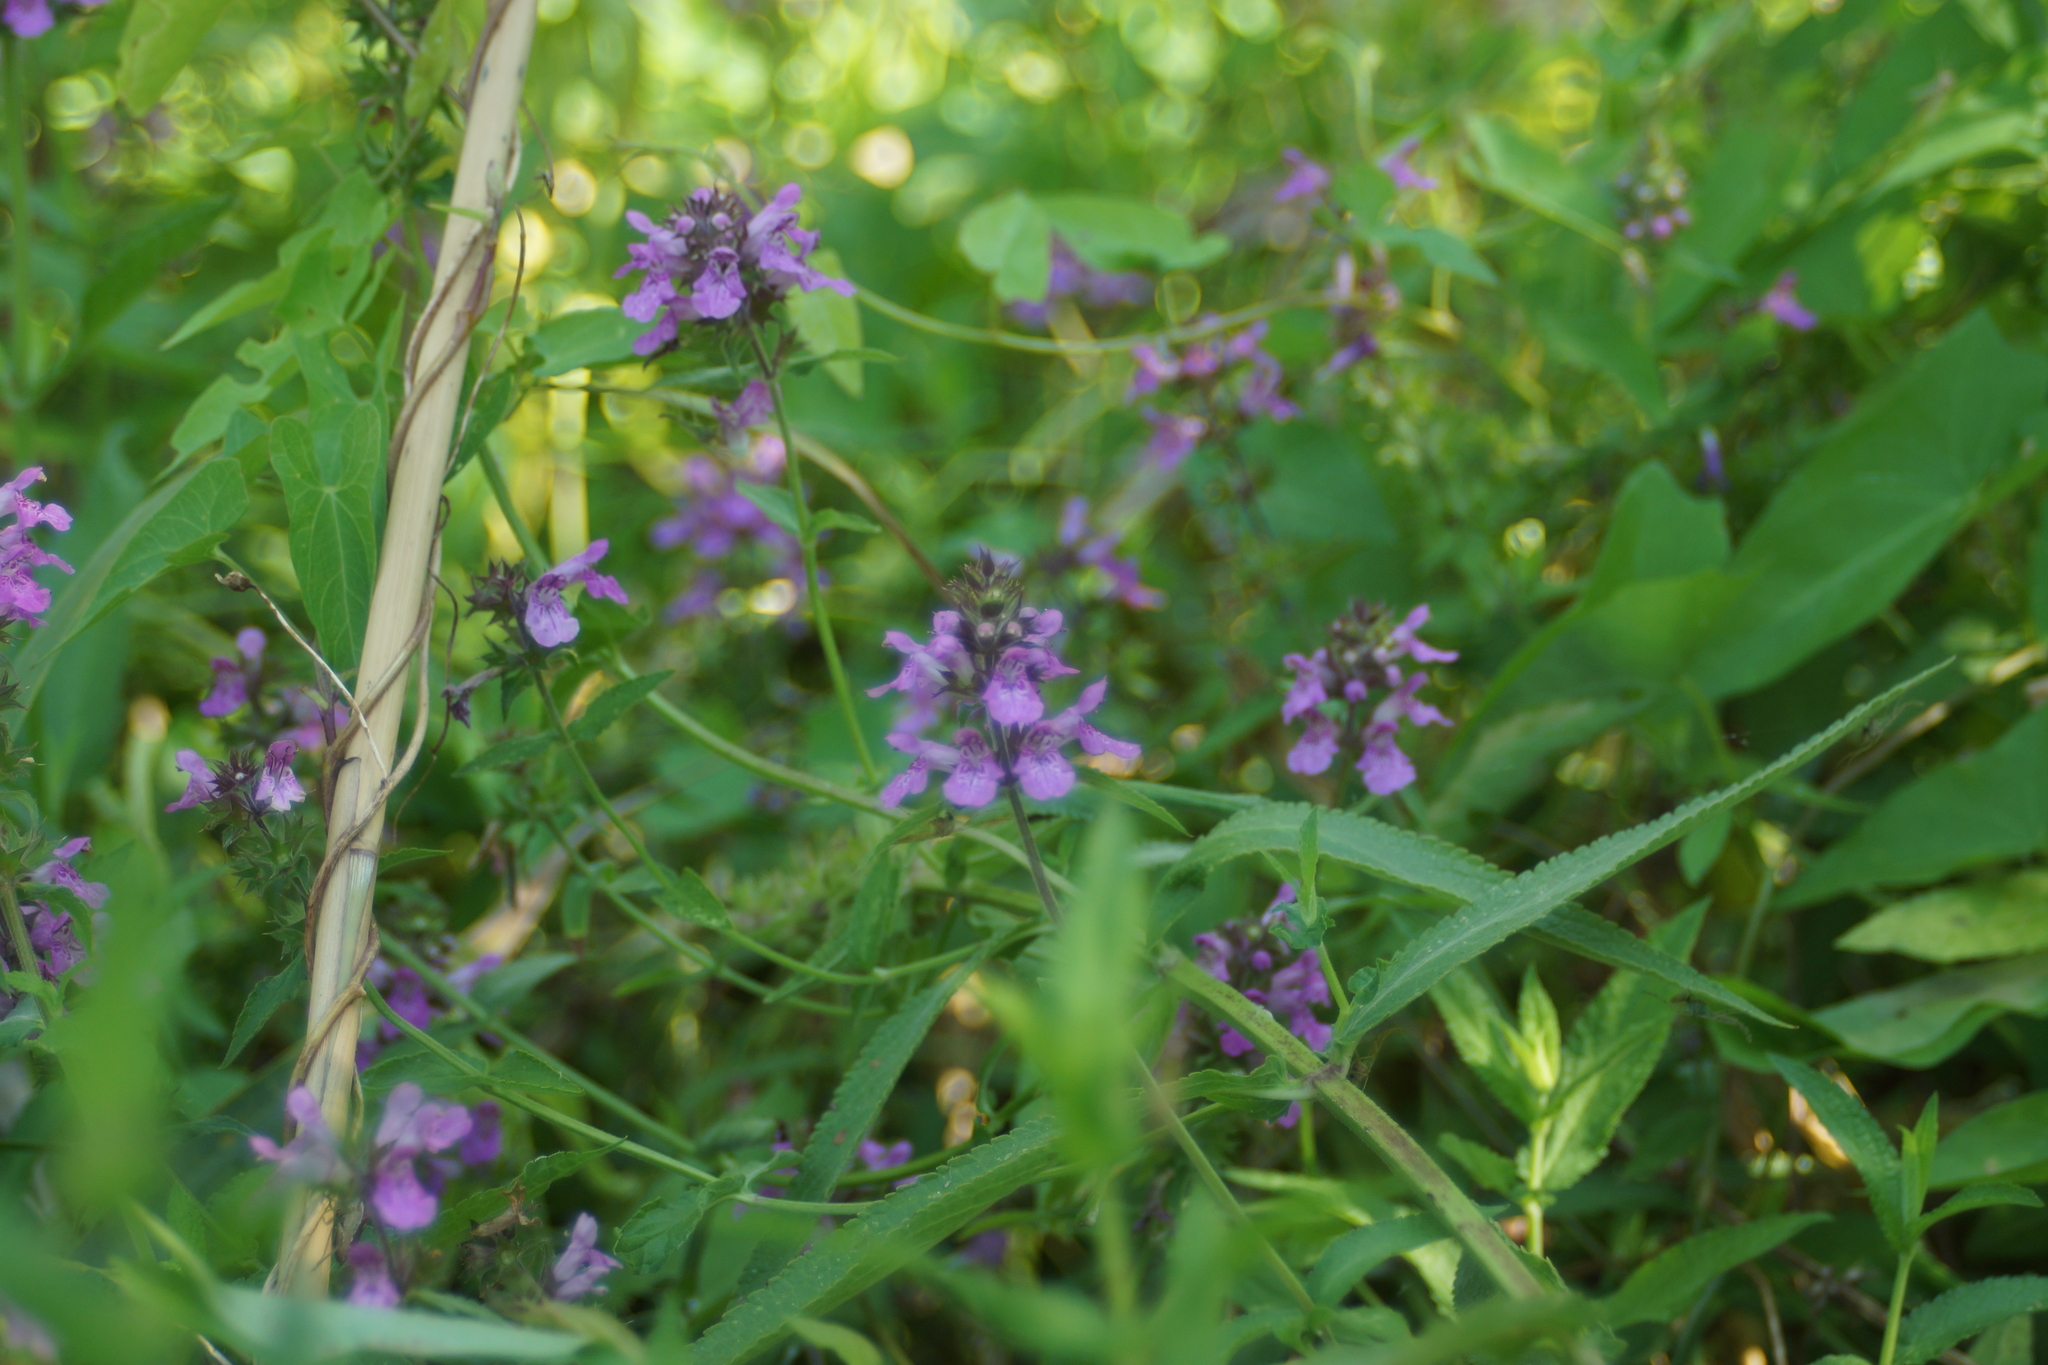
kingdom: Plantae
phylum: Tracheophyta
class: Magnoliopsida
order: Lamiales
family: Lamiaceae
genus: Stachys
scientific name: Stachys palustris
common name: Marsh woundwort
